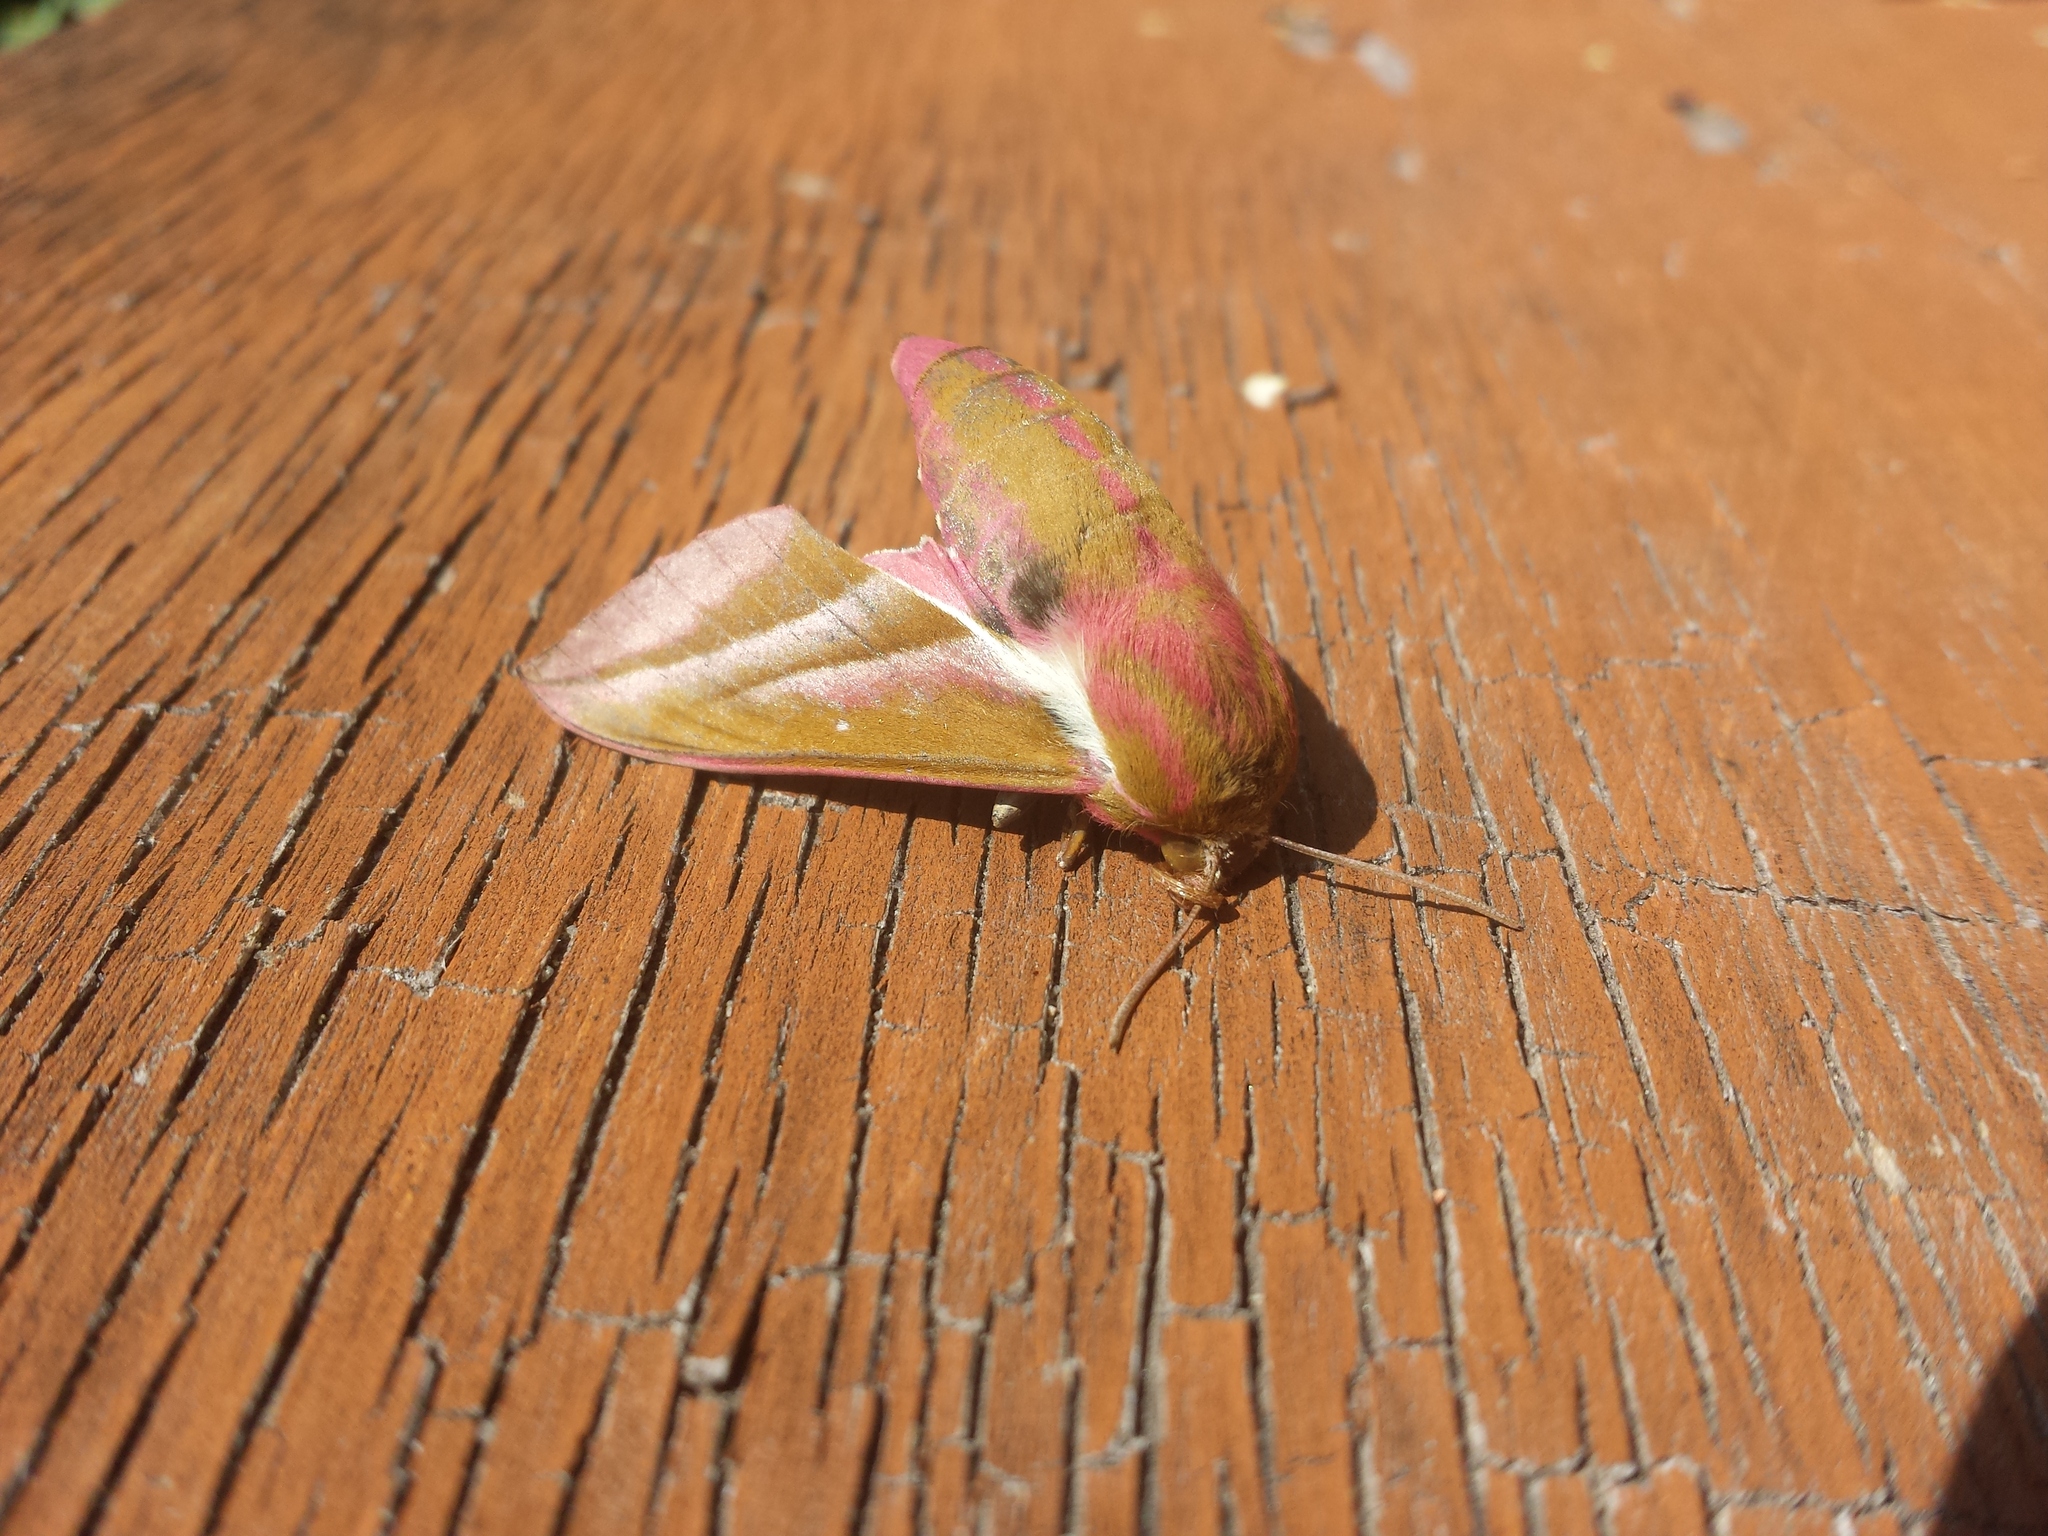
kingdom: Animalia
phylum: Arthropoda
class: Insecta
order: Lepidoptera
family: Sphingidae
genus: Deilephila
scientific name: Deilephila elpenor
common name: Elephant hawk-moth
